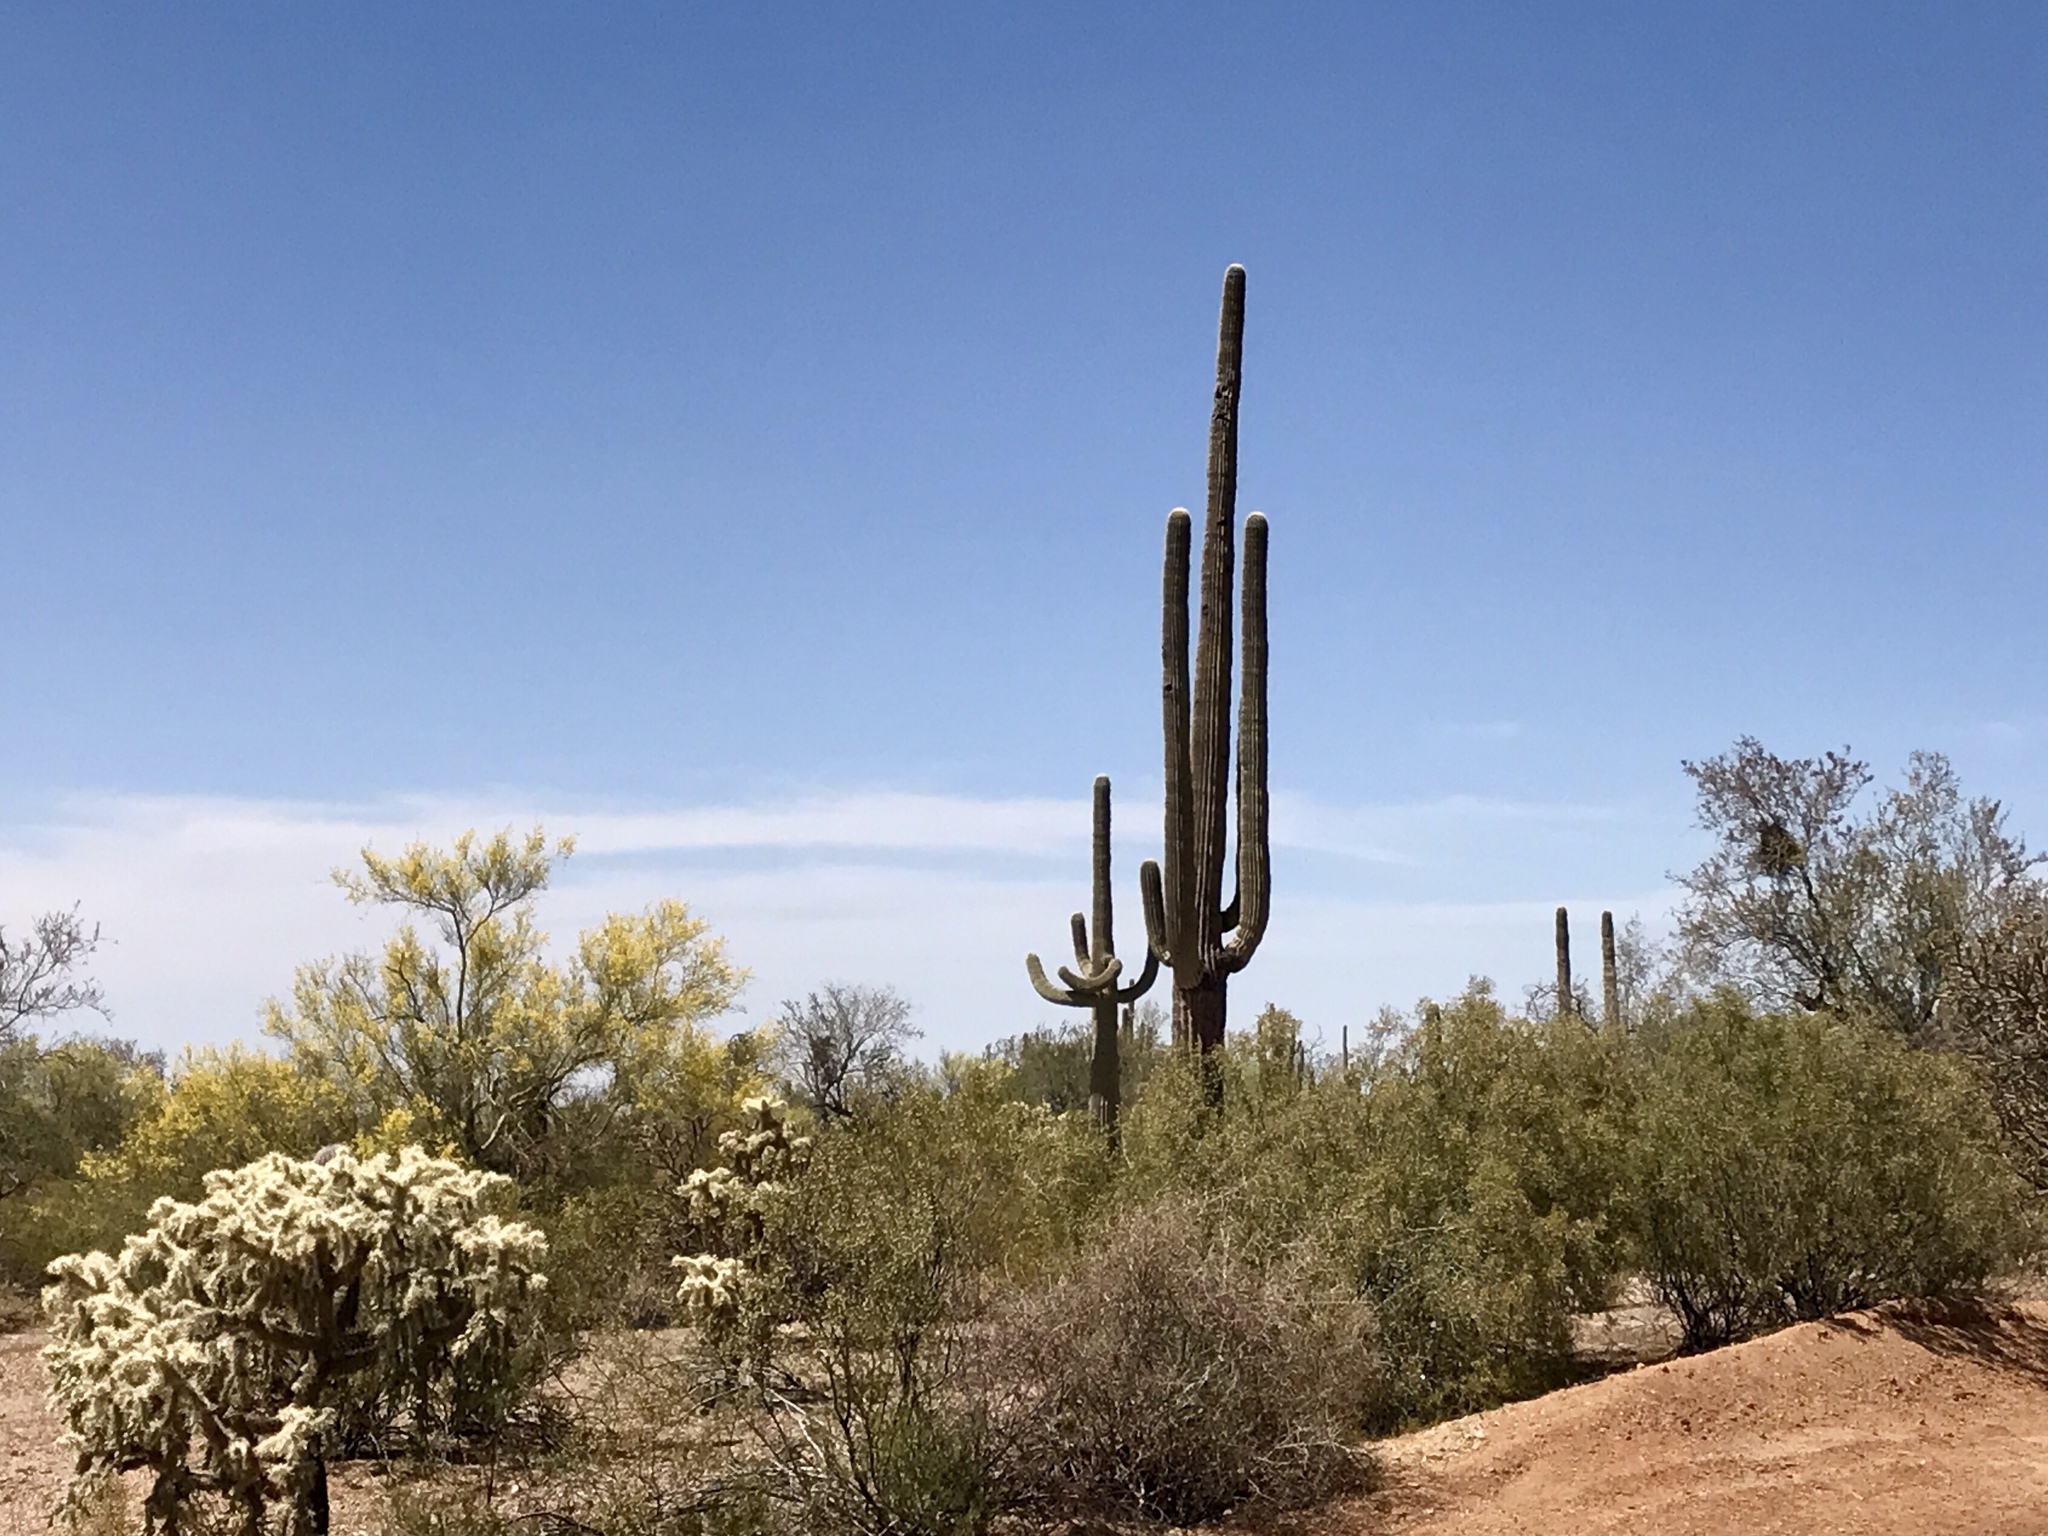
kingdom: Plantae
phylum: Tracheophyta
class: Magnoliopsida
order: Caryophyllales
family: Cactaceae
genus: Carnegiea
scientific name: Carnegiea gigantea
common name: Saguaro
